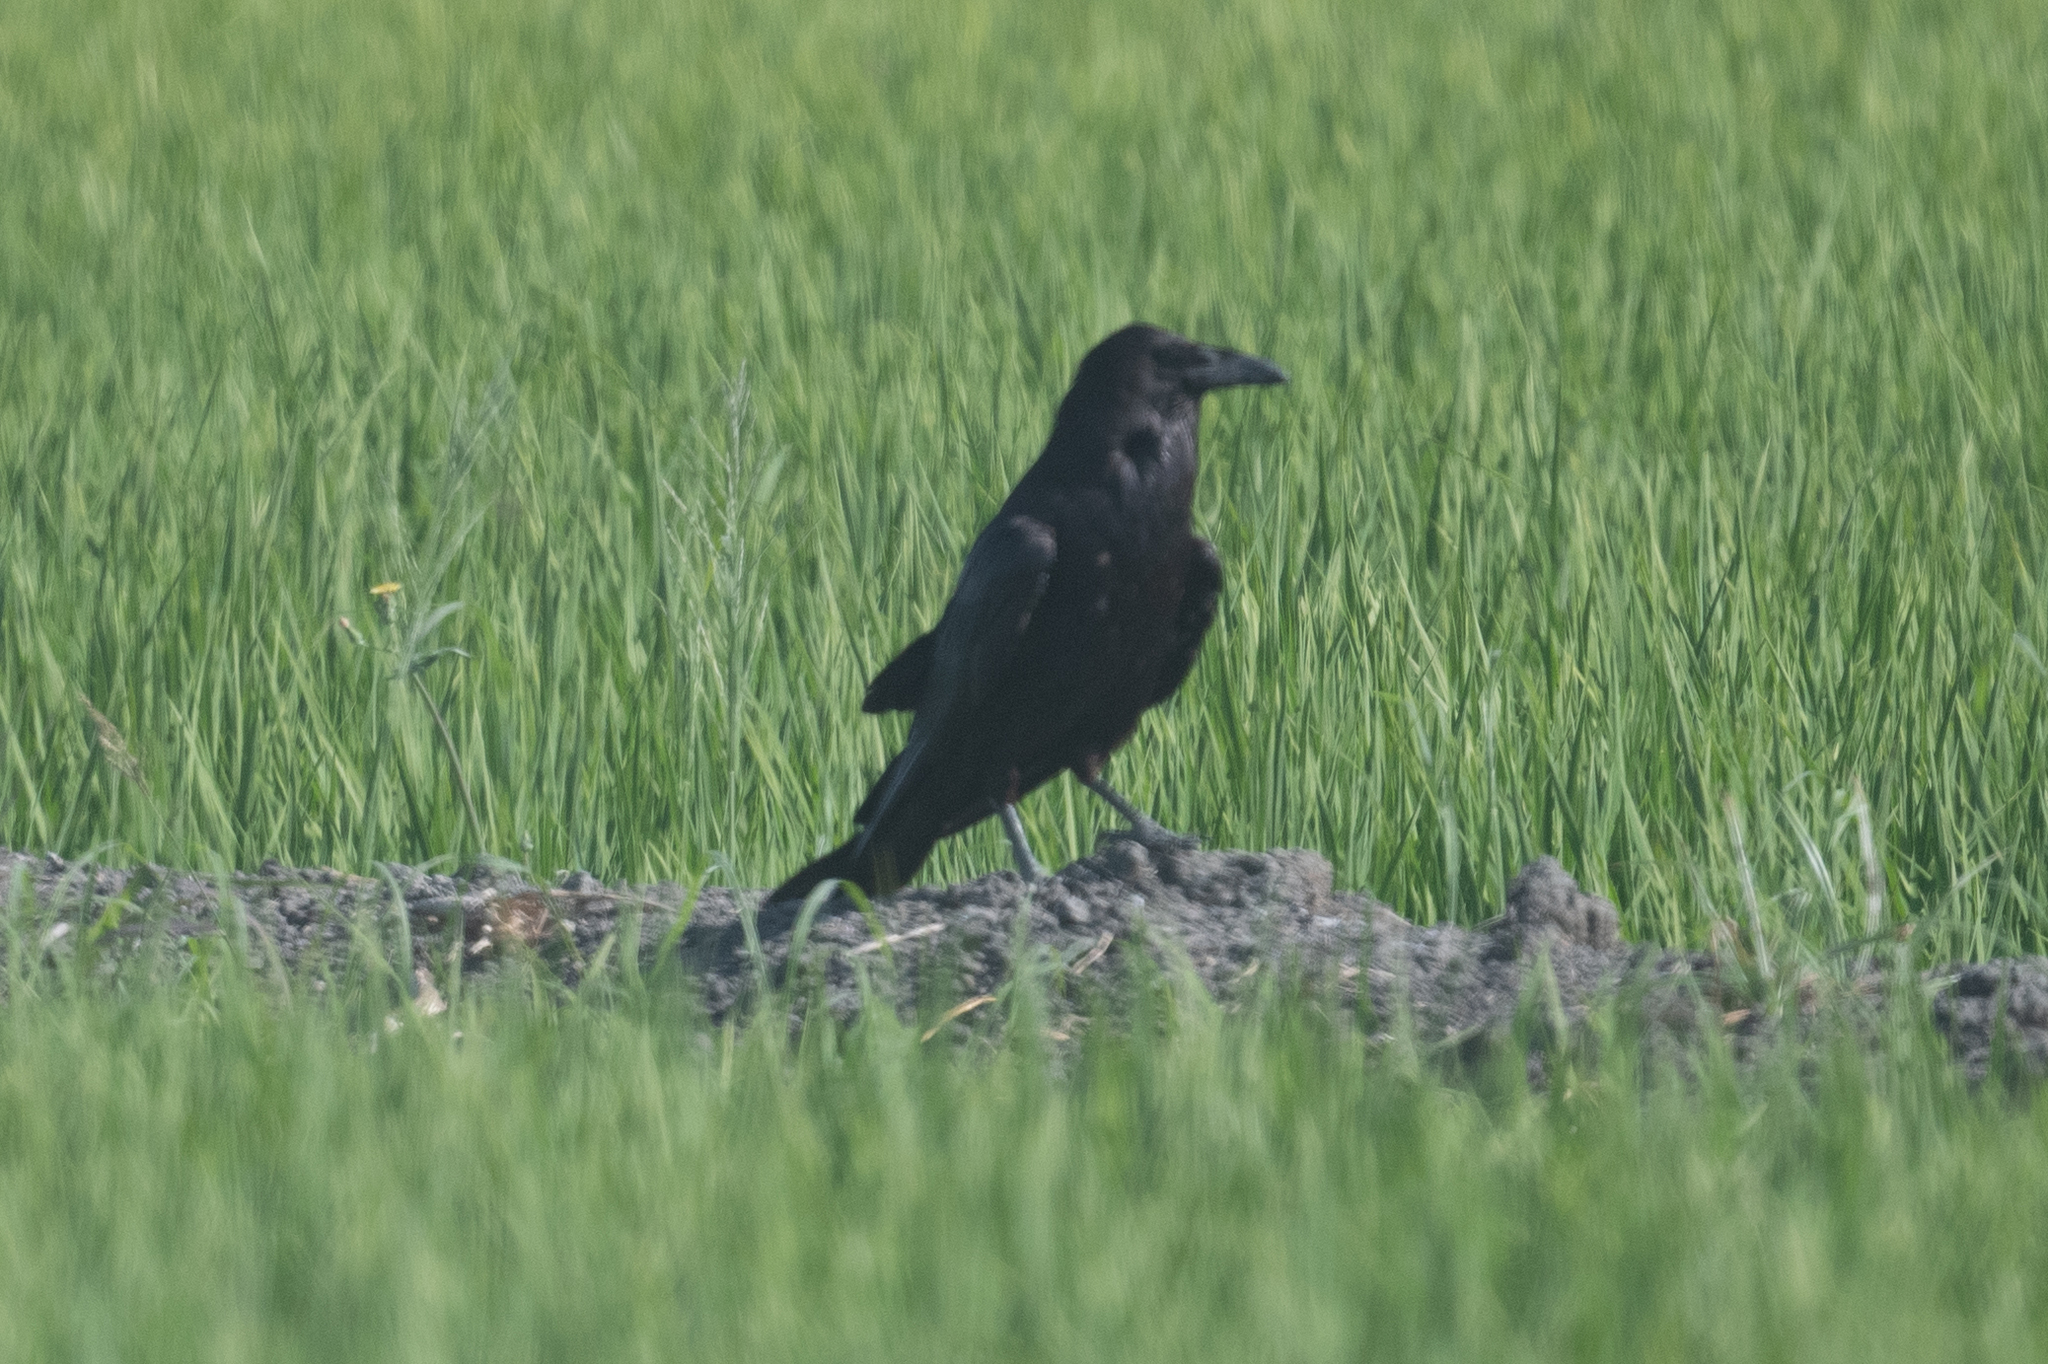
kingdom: Animalia
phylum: Chordata
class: Aves
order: Passeriformes
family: Corvidae
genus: Corvus
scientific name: Corvus corax
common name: Common raven
